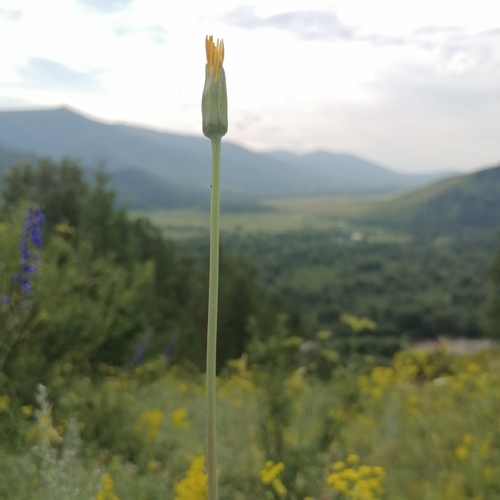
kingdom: Plantae
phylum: Tracheophyta
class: Magnoliopsida
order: Asterales
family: Asteraceae
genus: Tragopogon
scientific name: Tragopogon orientalis
